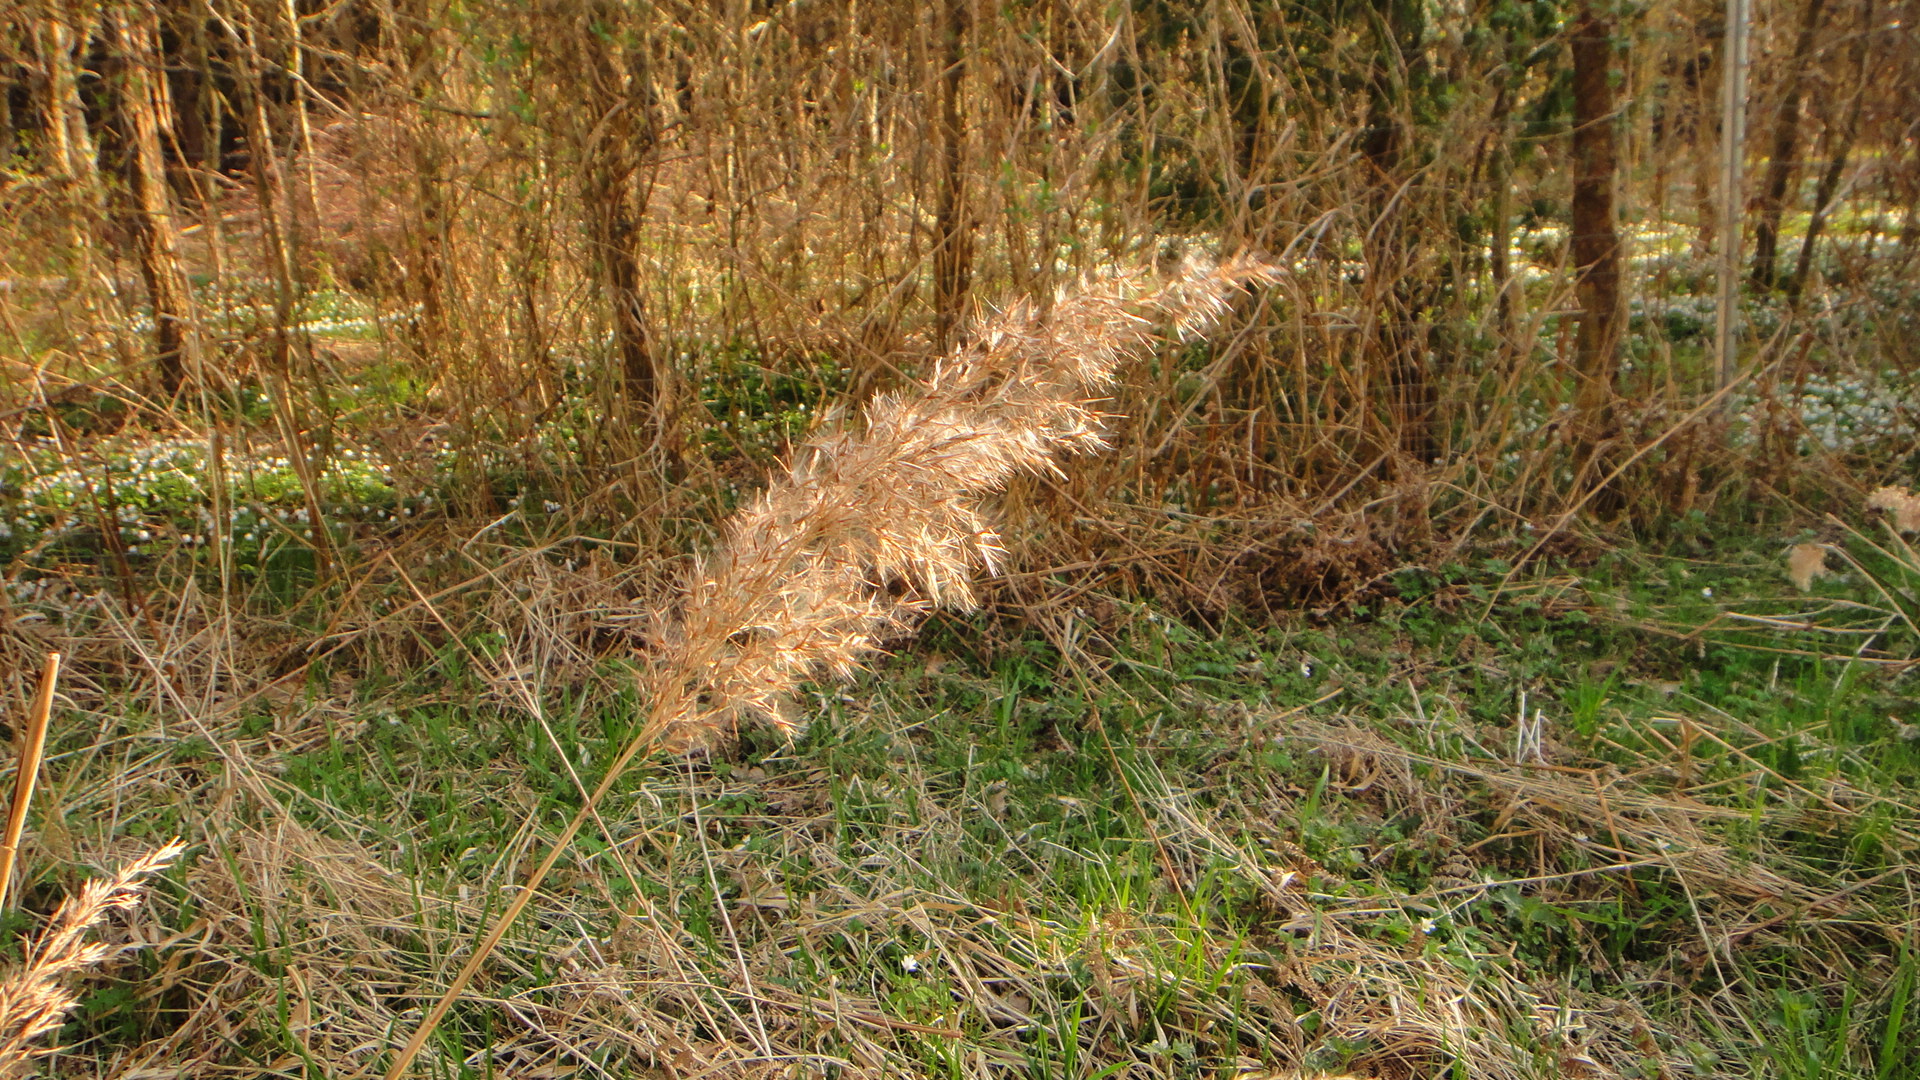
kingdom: Plantae
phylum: Tracheophyta
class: Liliopsida
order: Poales
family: Poaceae
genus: Phragmites
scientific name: Phragmites australis
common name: Common reed
